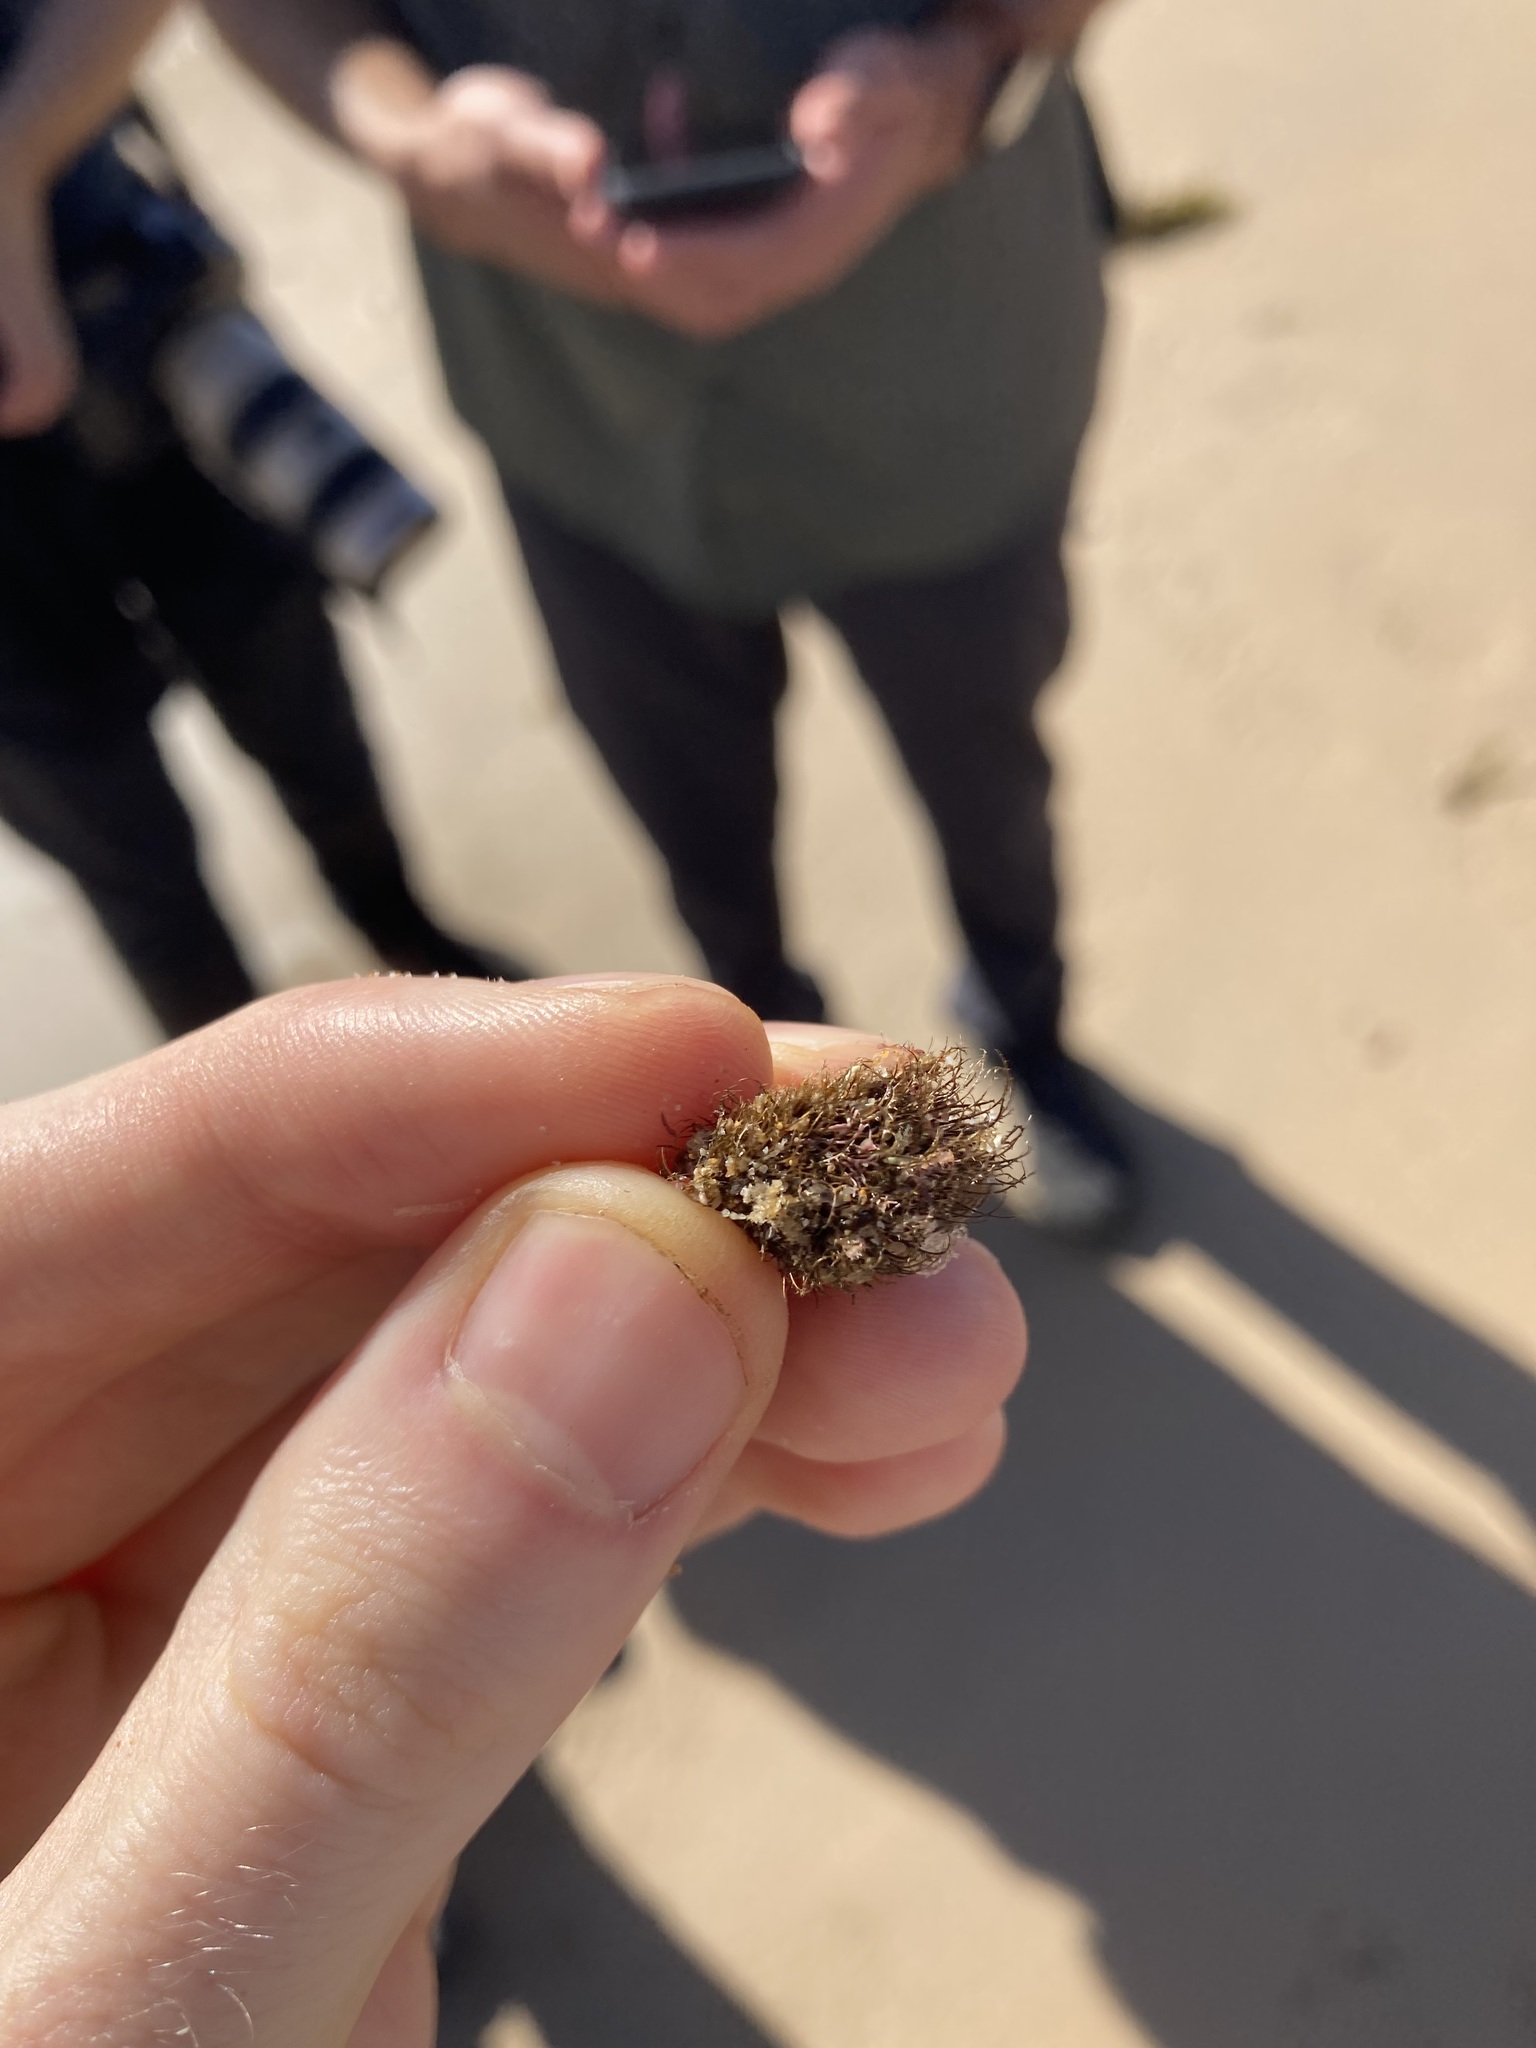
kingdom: Animalia
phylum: Mollusca
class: Bivalvia
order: Mytilida
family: Mytilidae
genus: Trichomya
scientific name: Trichomya hirsuta
